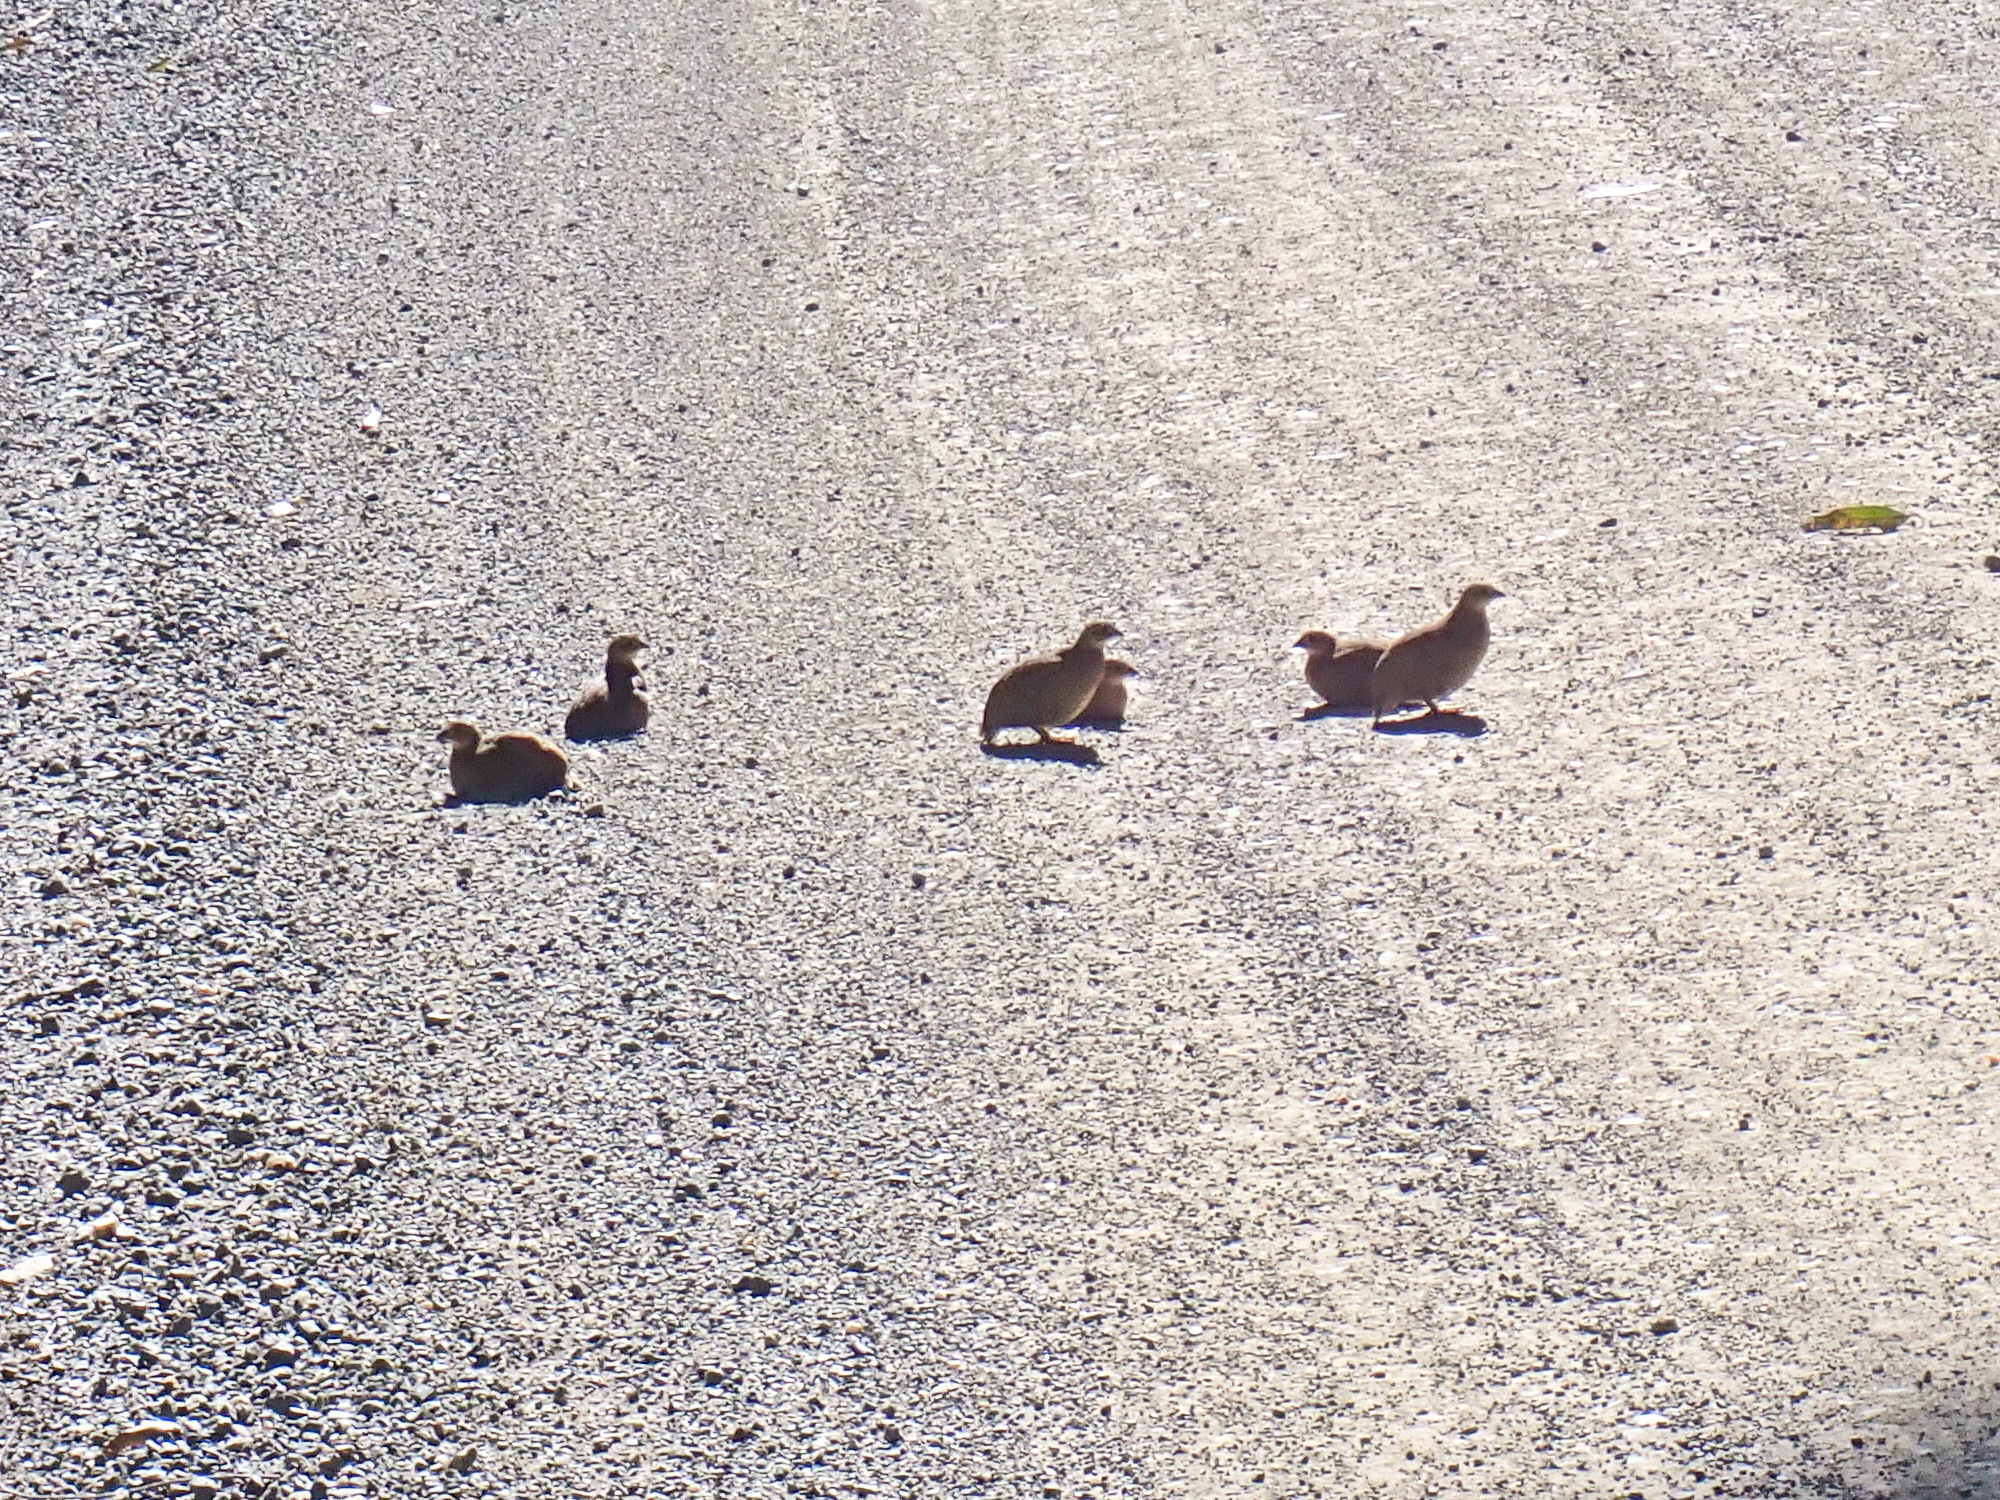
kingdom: Animalia
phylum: Chordata
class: Aves
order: Galliformes
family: Phasianidae
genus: Synoicus
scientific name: Synoicus ypsilophorus
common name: Brown quail
